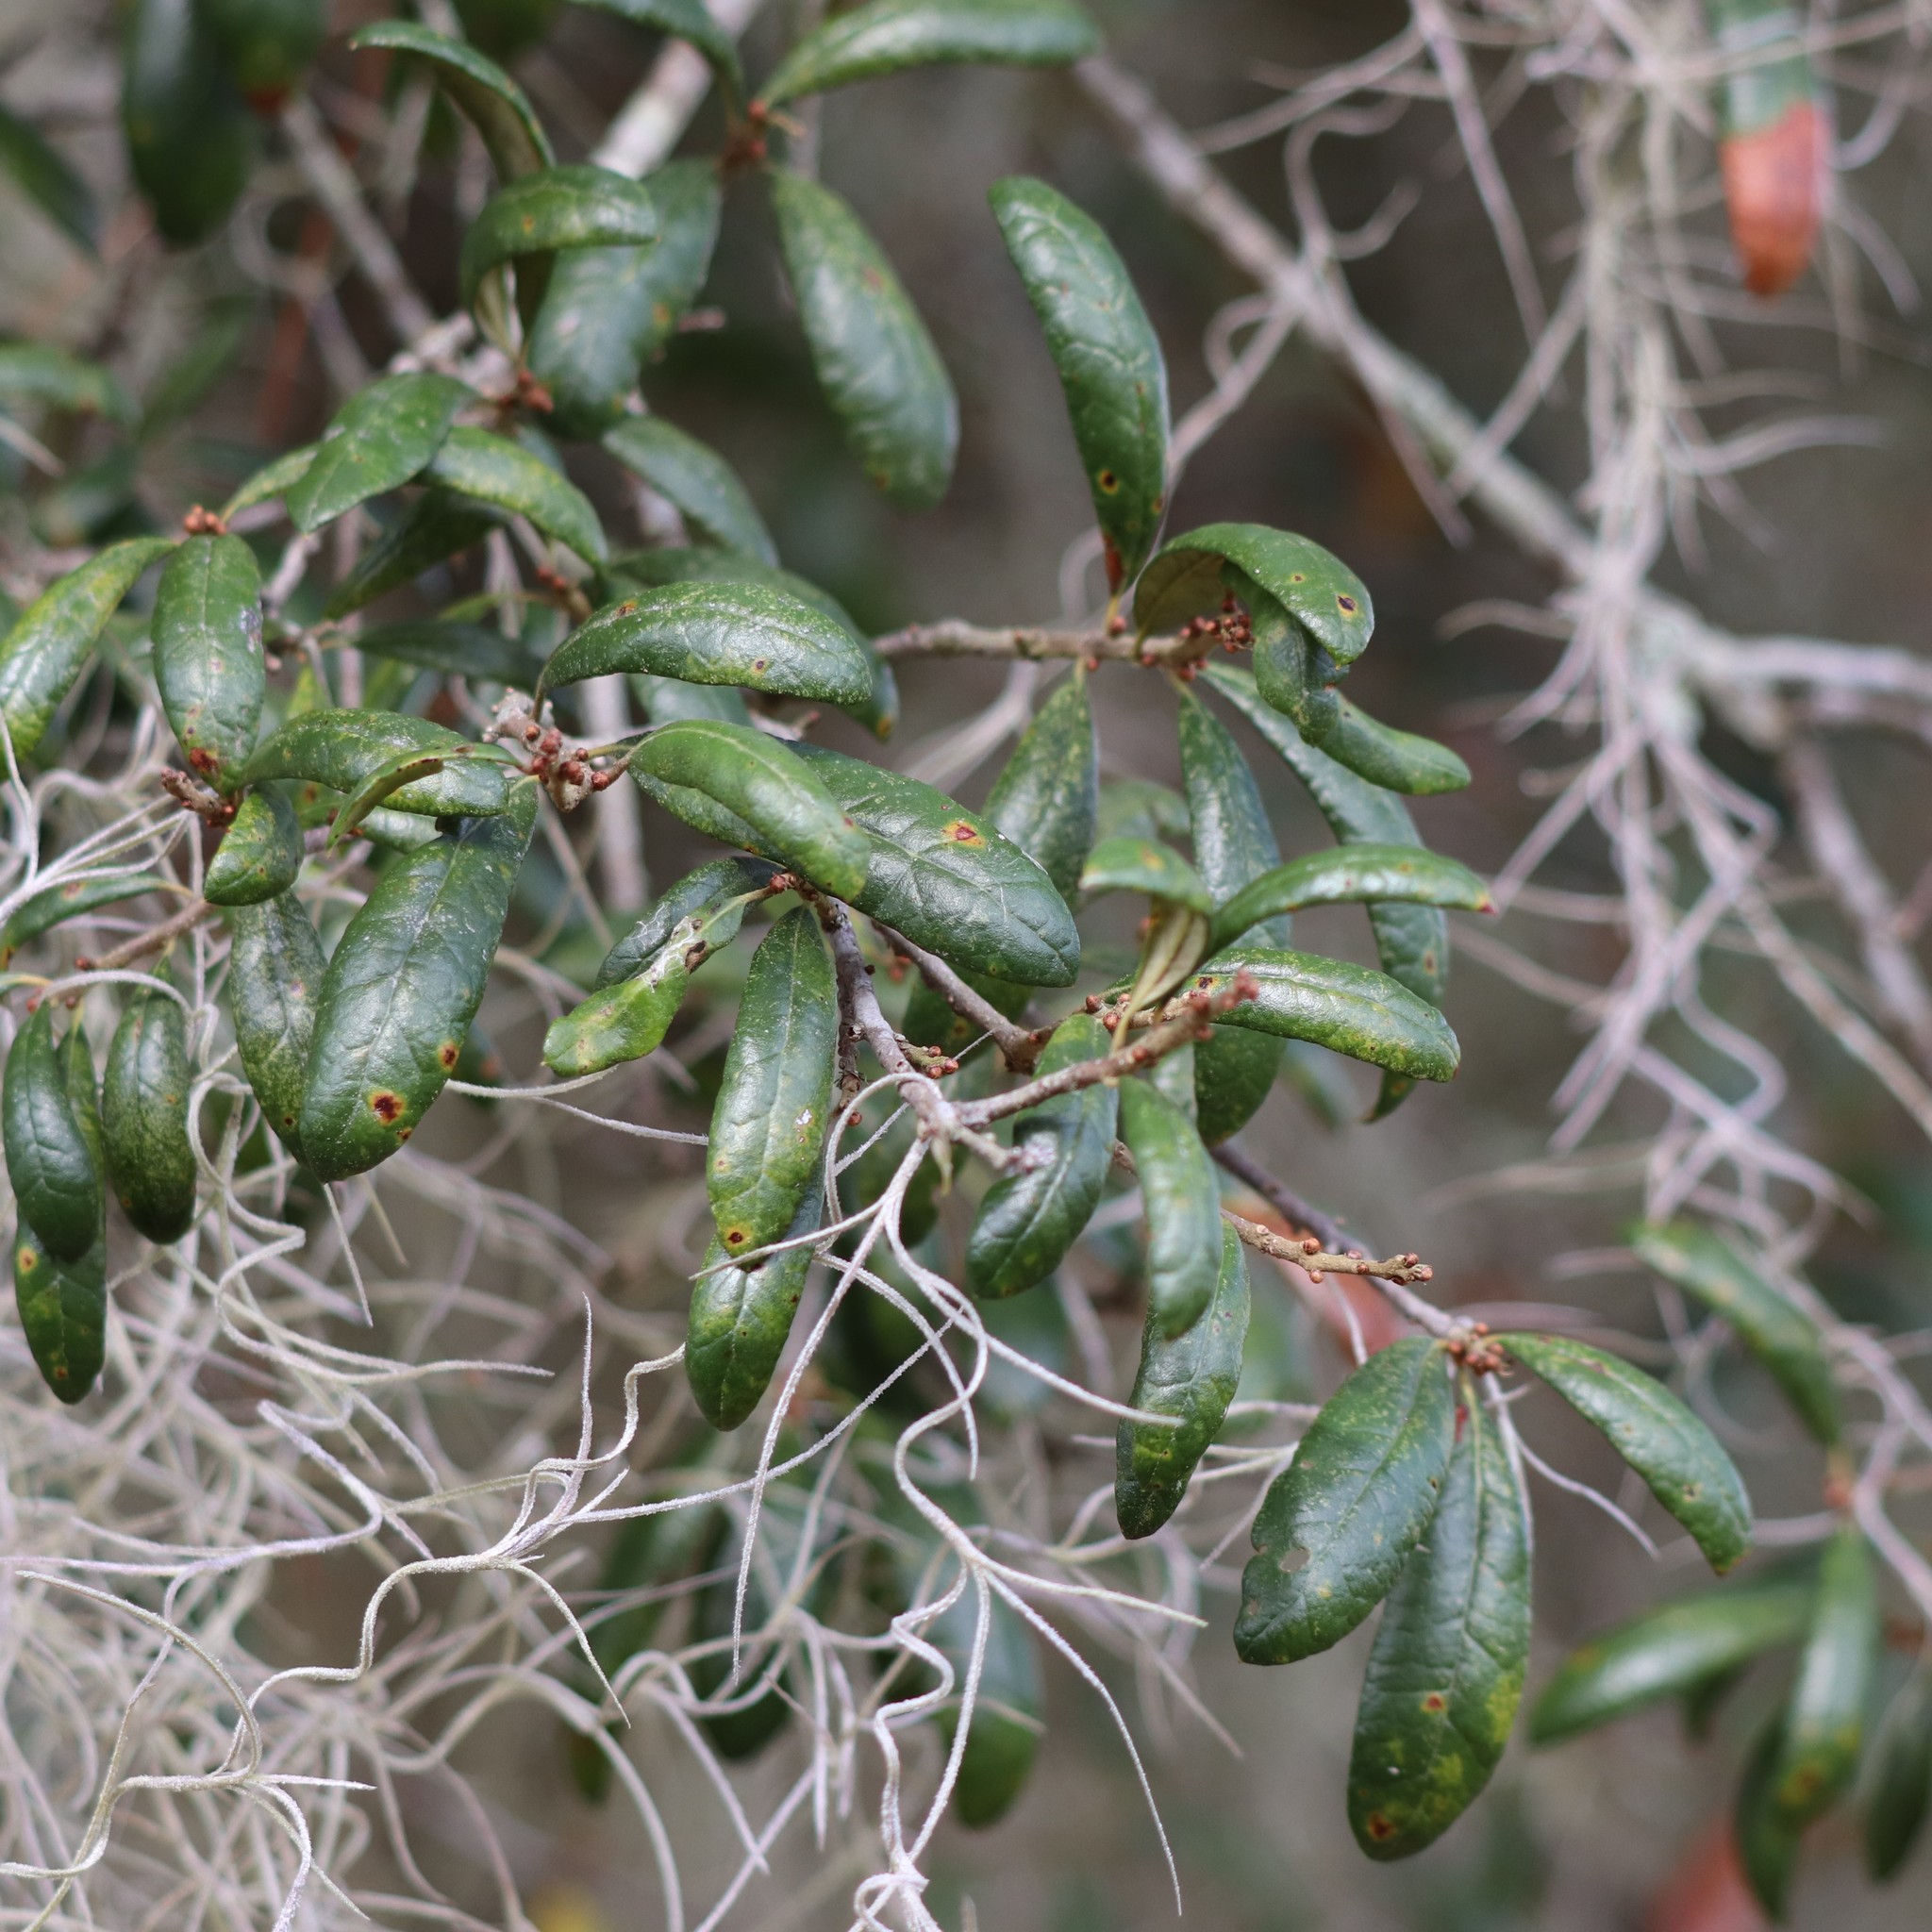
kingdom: Plantae
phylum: Tracheophyta
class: Magnoliopsida
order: Fagales
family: Fagaceae
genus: Quercus
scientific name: Quercus geminata
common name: Sand live oak
